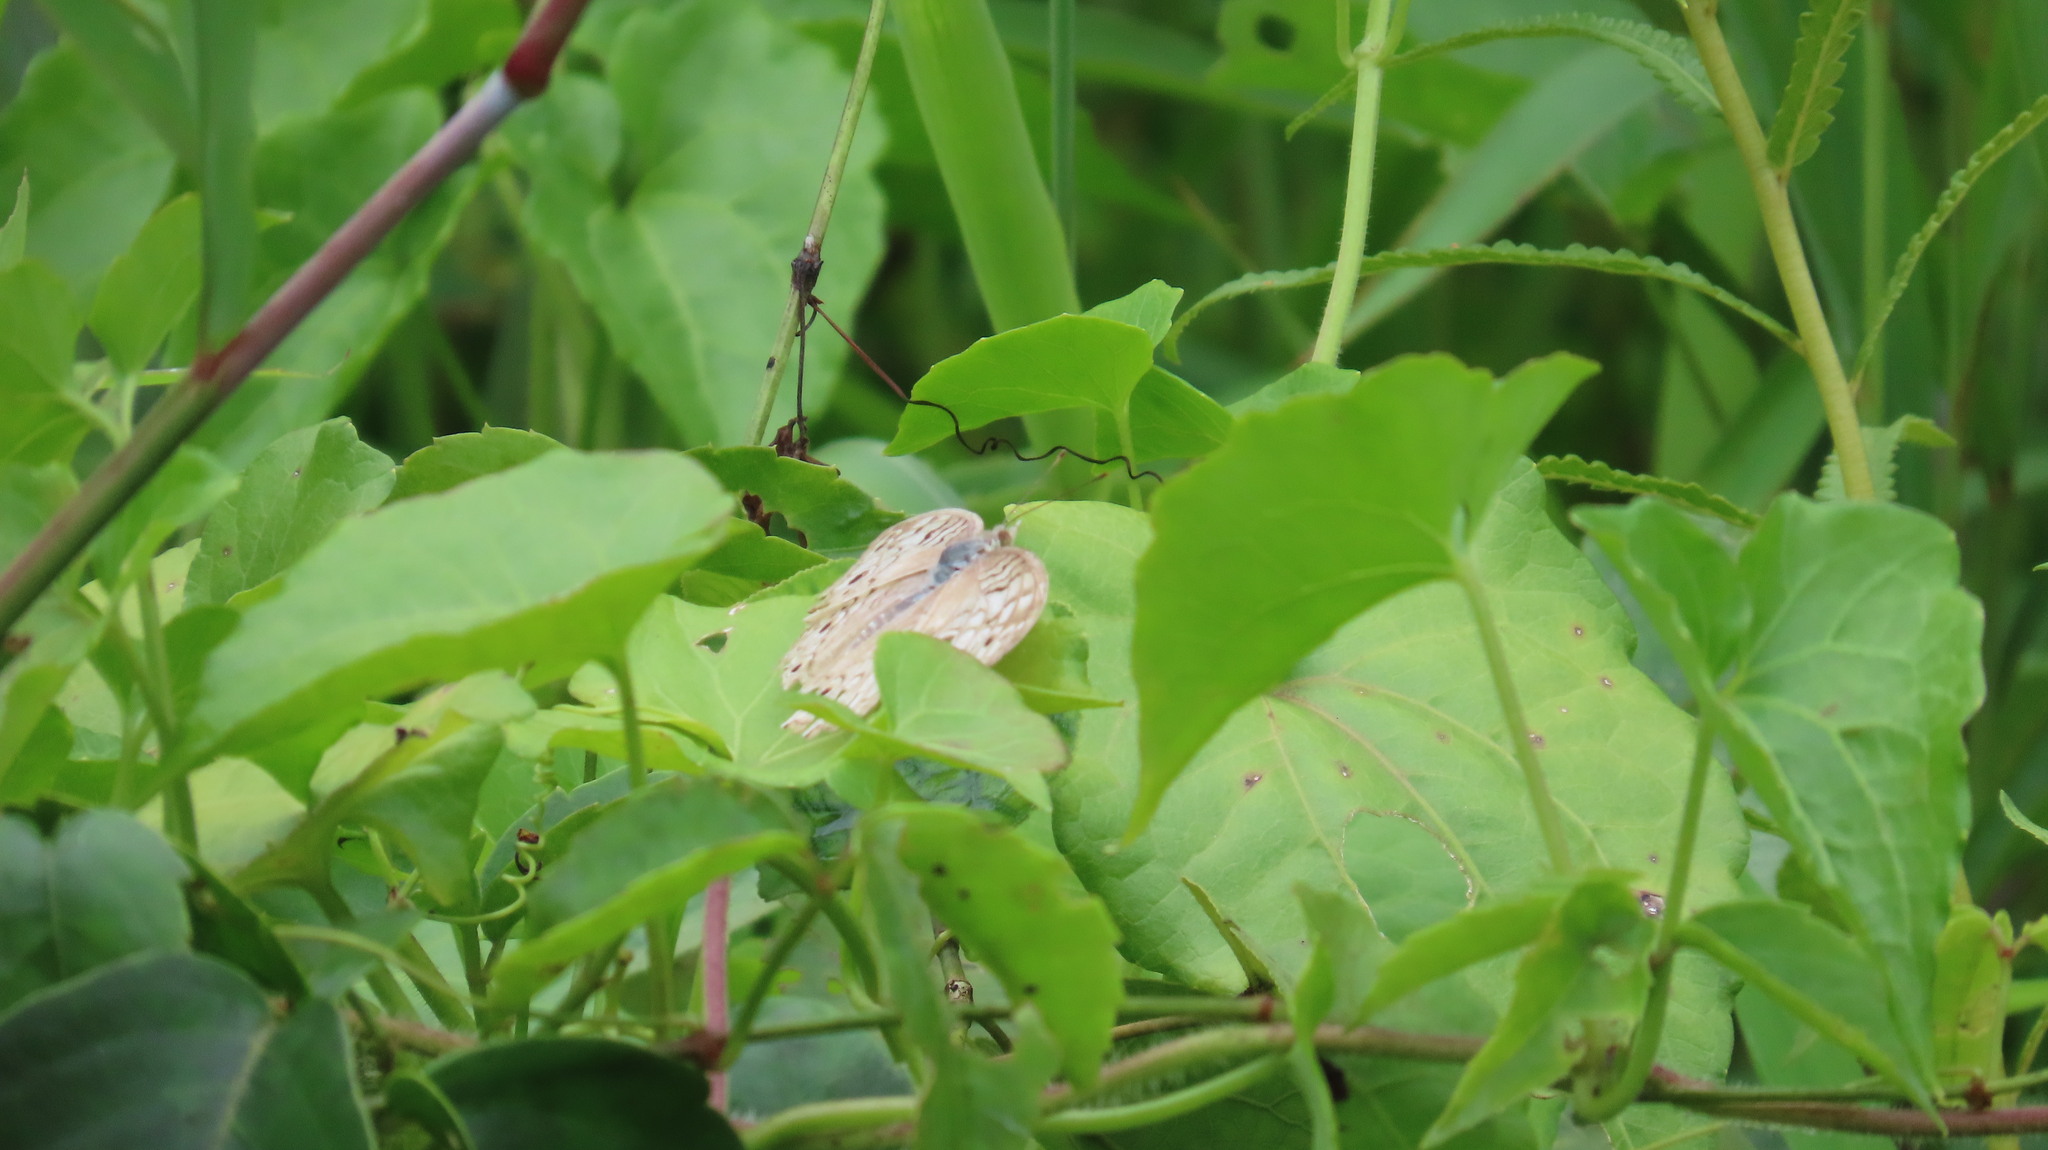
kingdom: Animalia
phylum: Arthropoda
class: Insecta
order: Lepidoptera
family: Nymphalidae
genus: Junonia
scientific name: Junonia atlites
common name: Grey pansy
